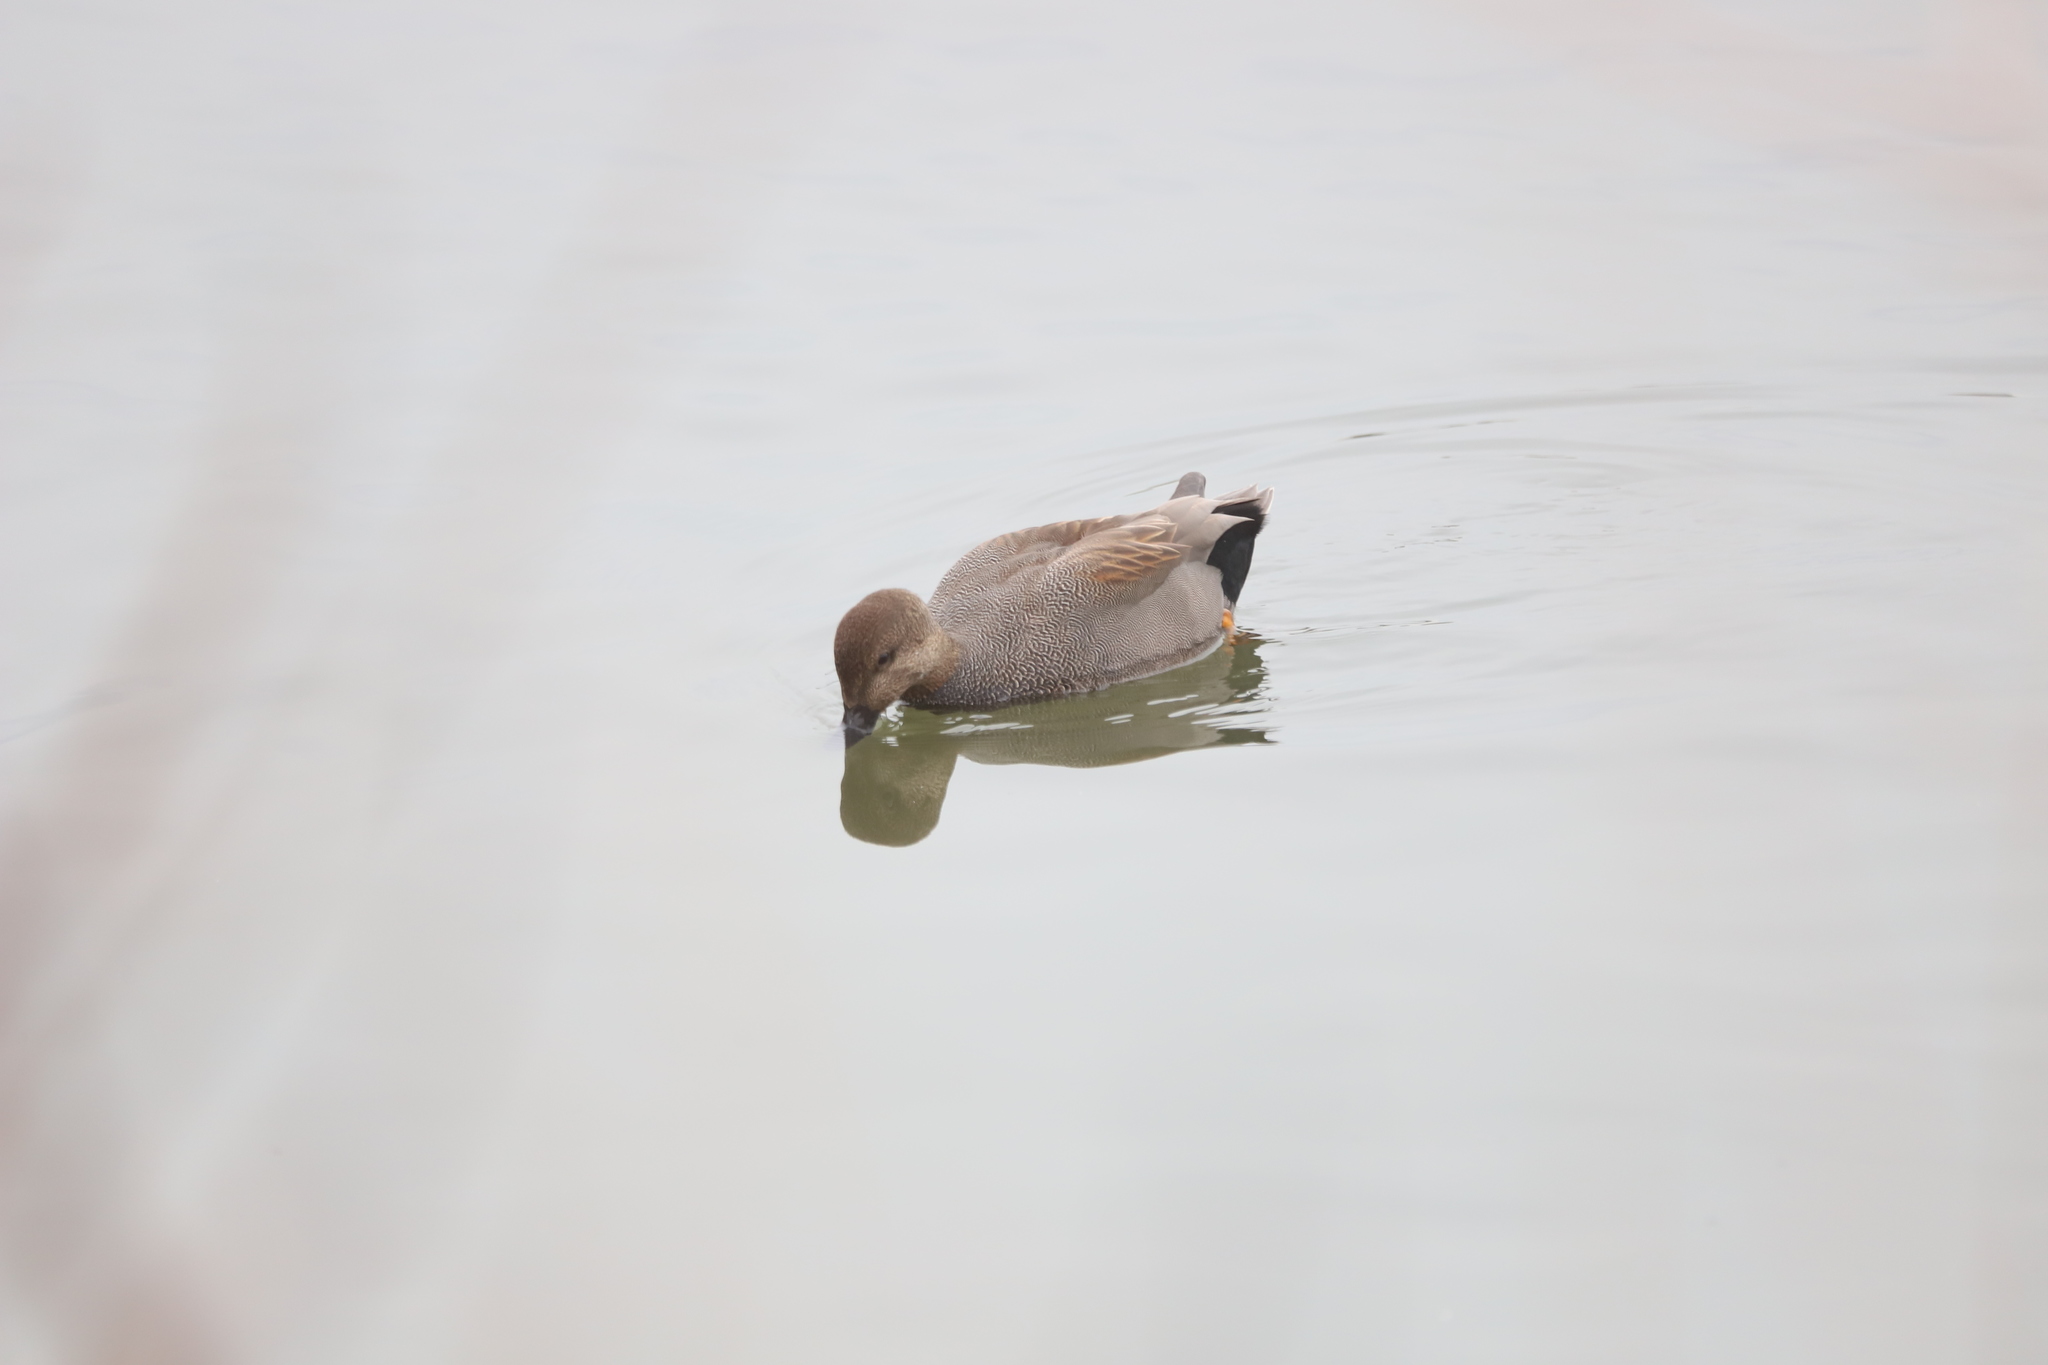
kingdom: Animalia
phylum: Chordata
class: Aves
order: Anseriformes
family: Anatidae
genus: Mareca
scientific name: Mareca strepera
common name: Gadwall
